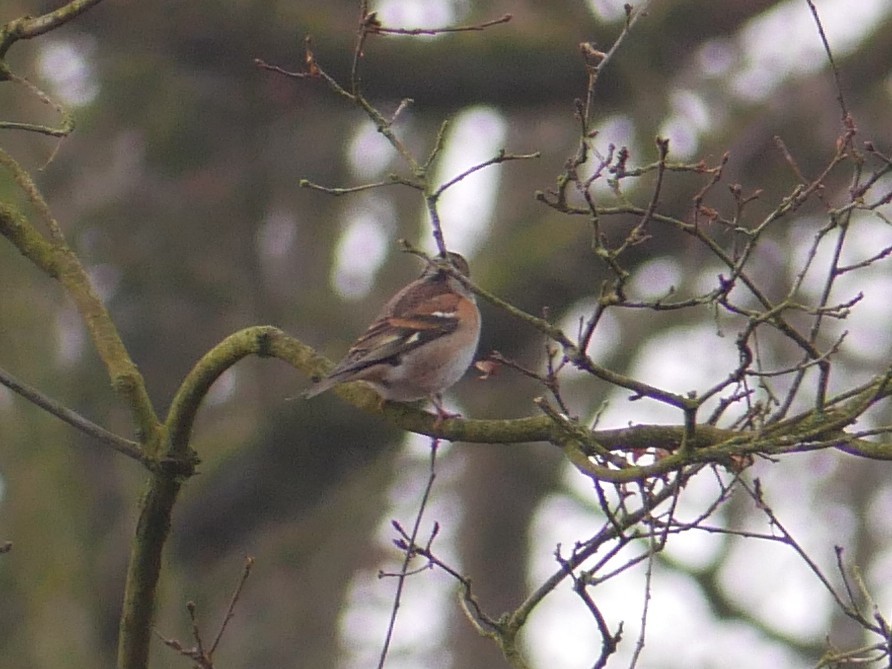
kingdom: Animalia
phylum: Chordata
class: Aves
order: Passeriformes
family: Fringillidae
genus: Fringilla
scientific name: Fringilla montifringilla
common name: Brambling
